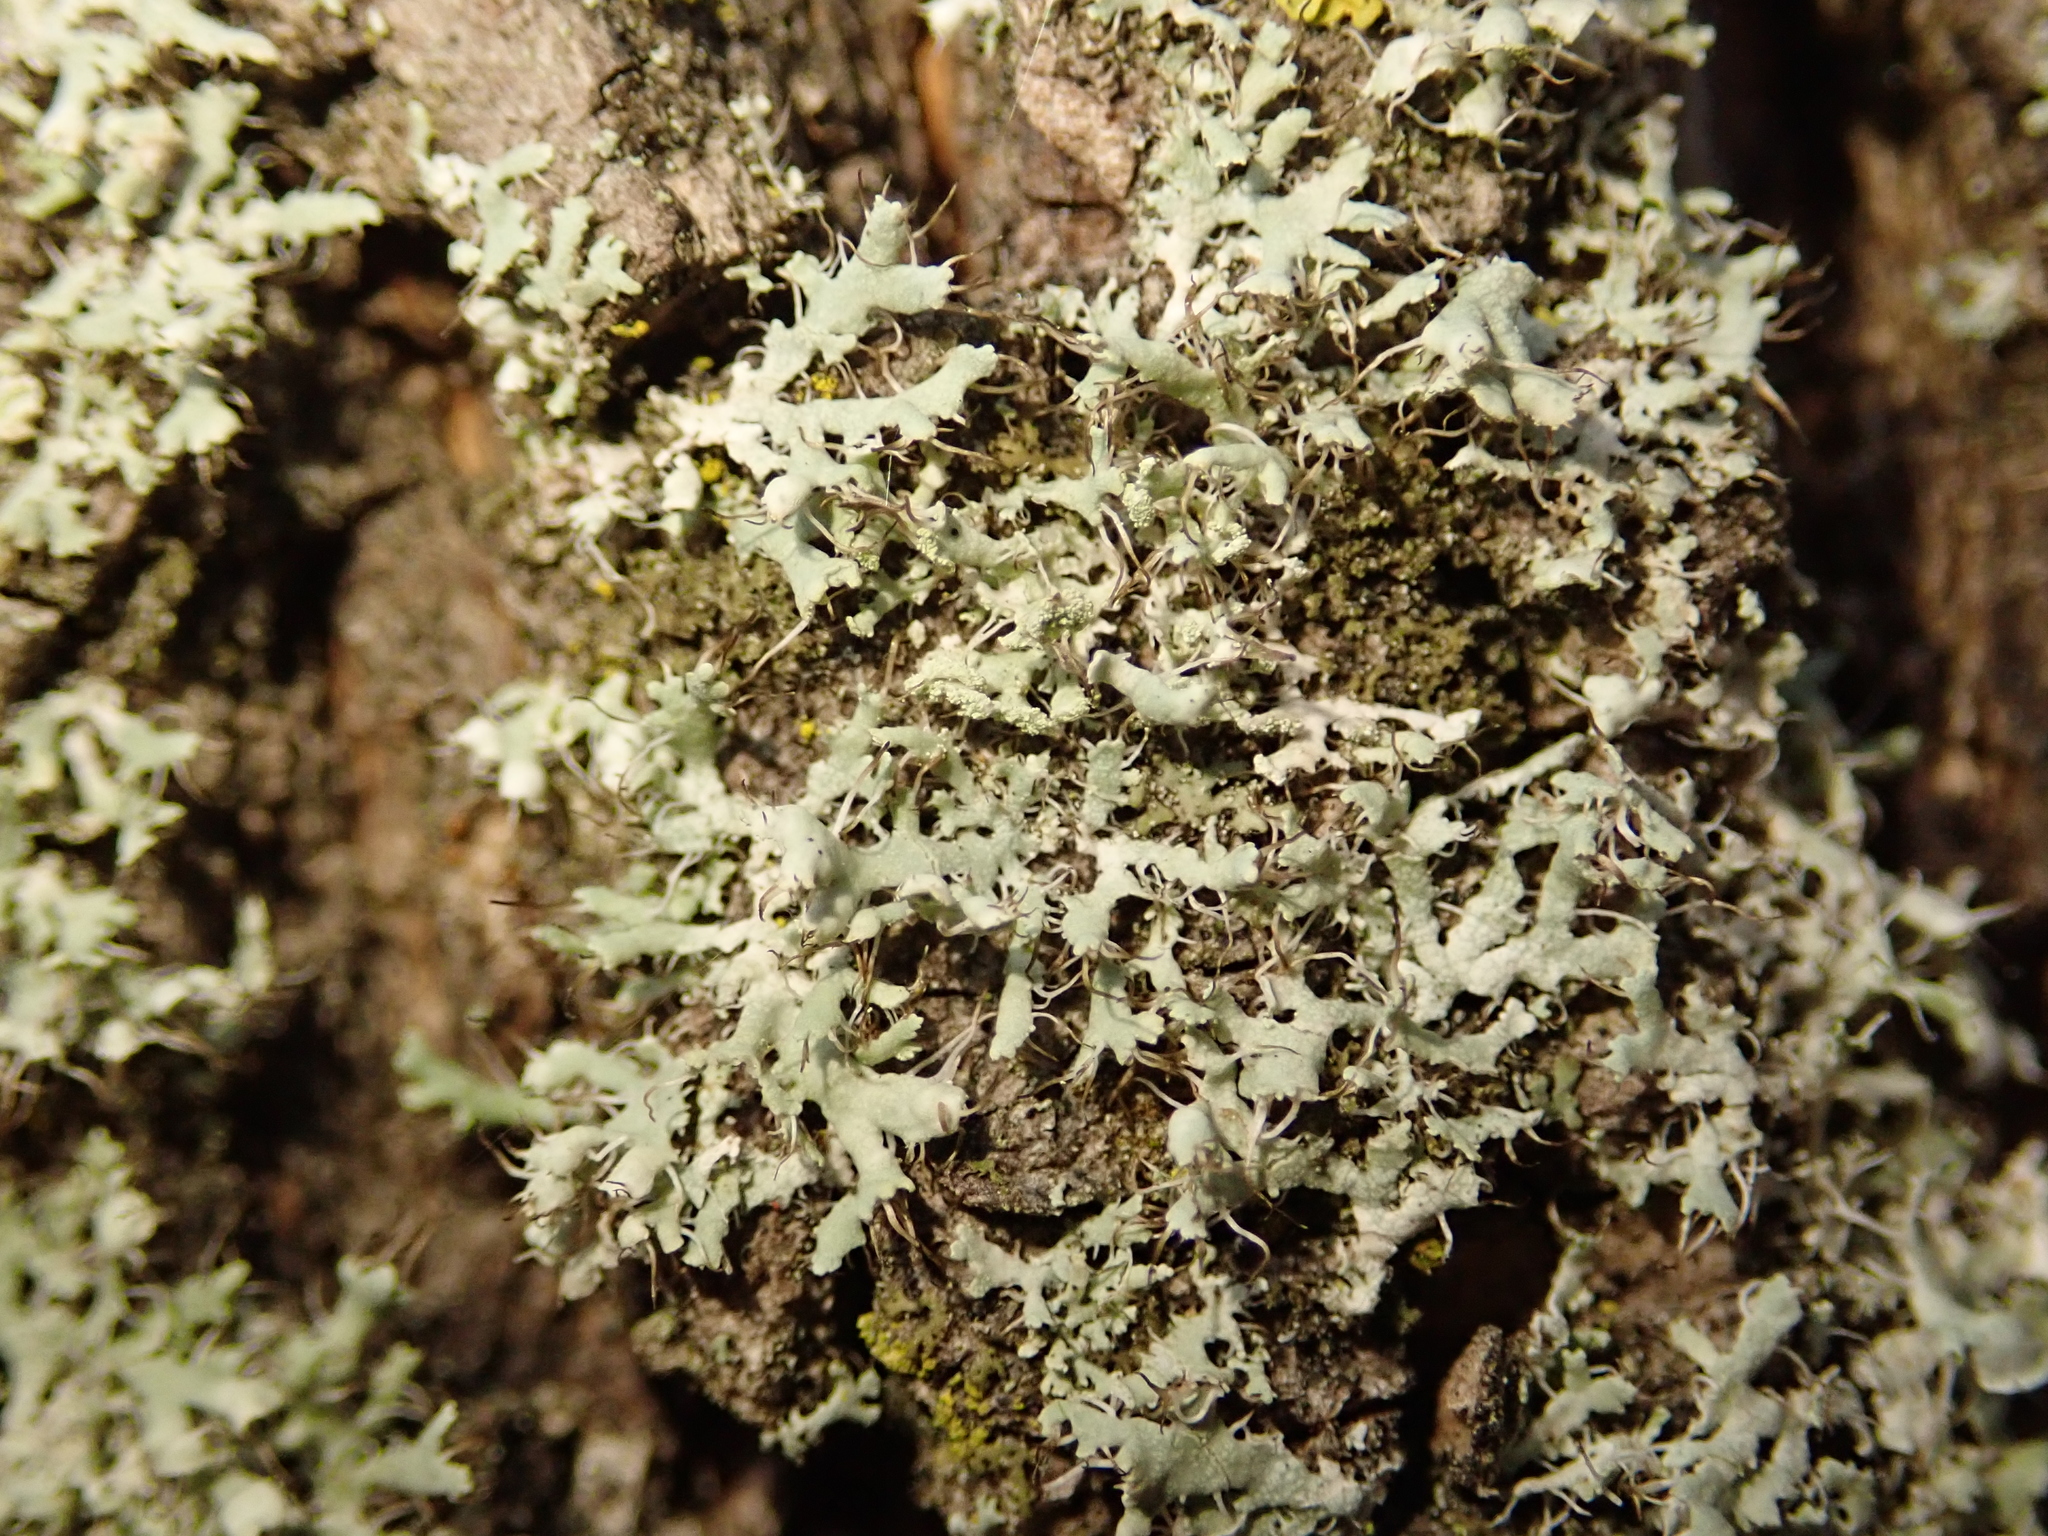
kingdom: Fungi
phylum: Ascomycota
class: Lecanoromycetes
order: Caliciales
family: Physciaceae
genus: Physcia
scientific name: Physcia adscendens
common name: Hooded rosette lichen
